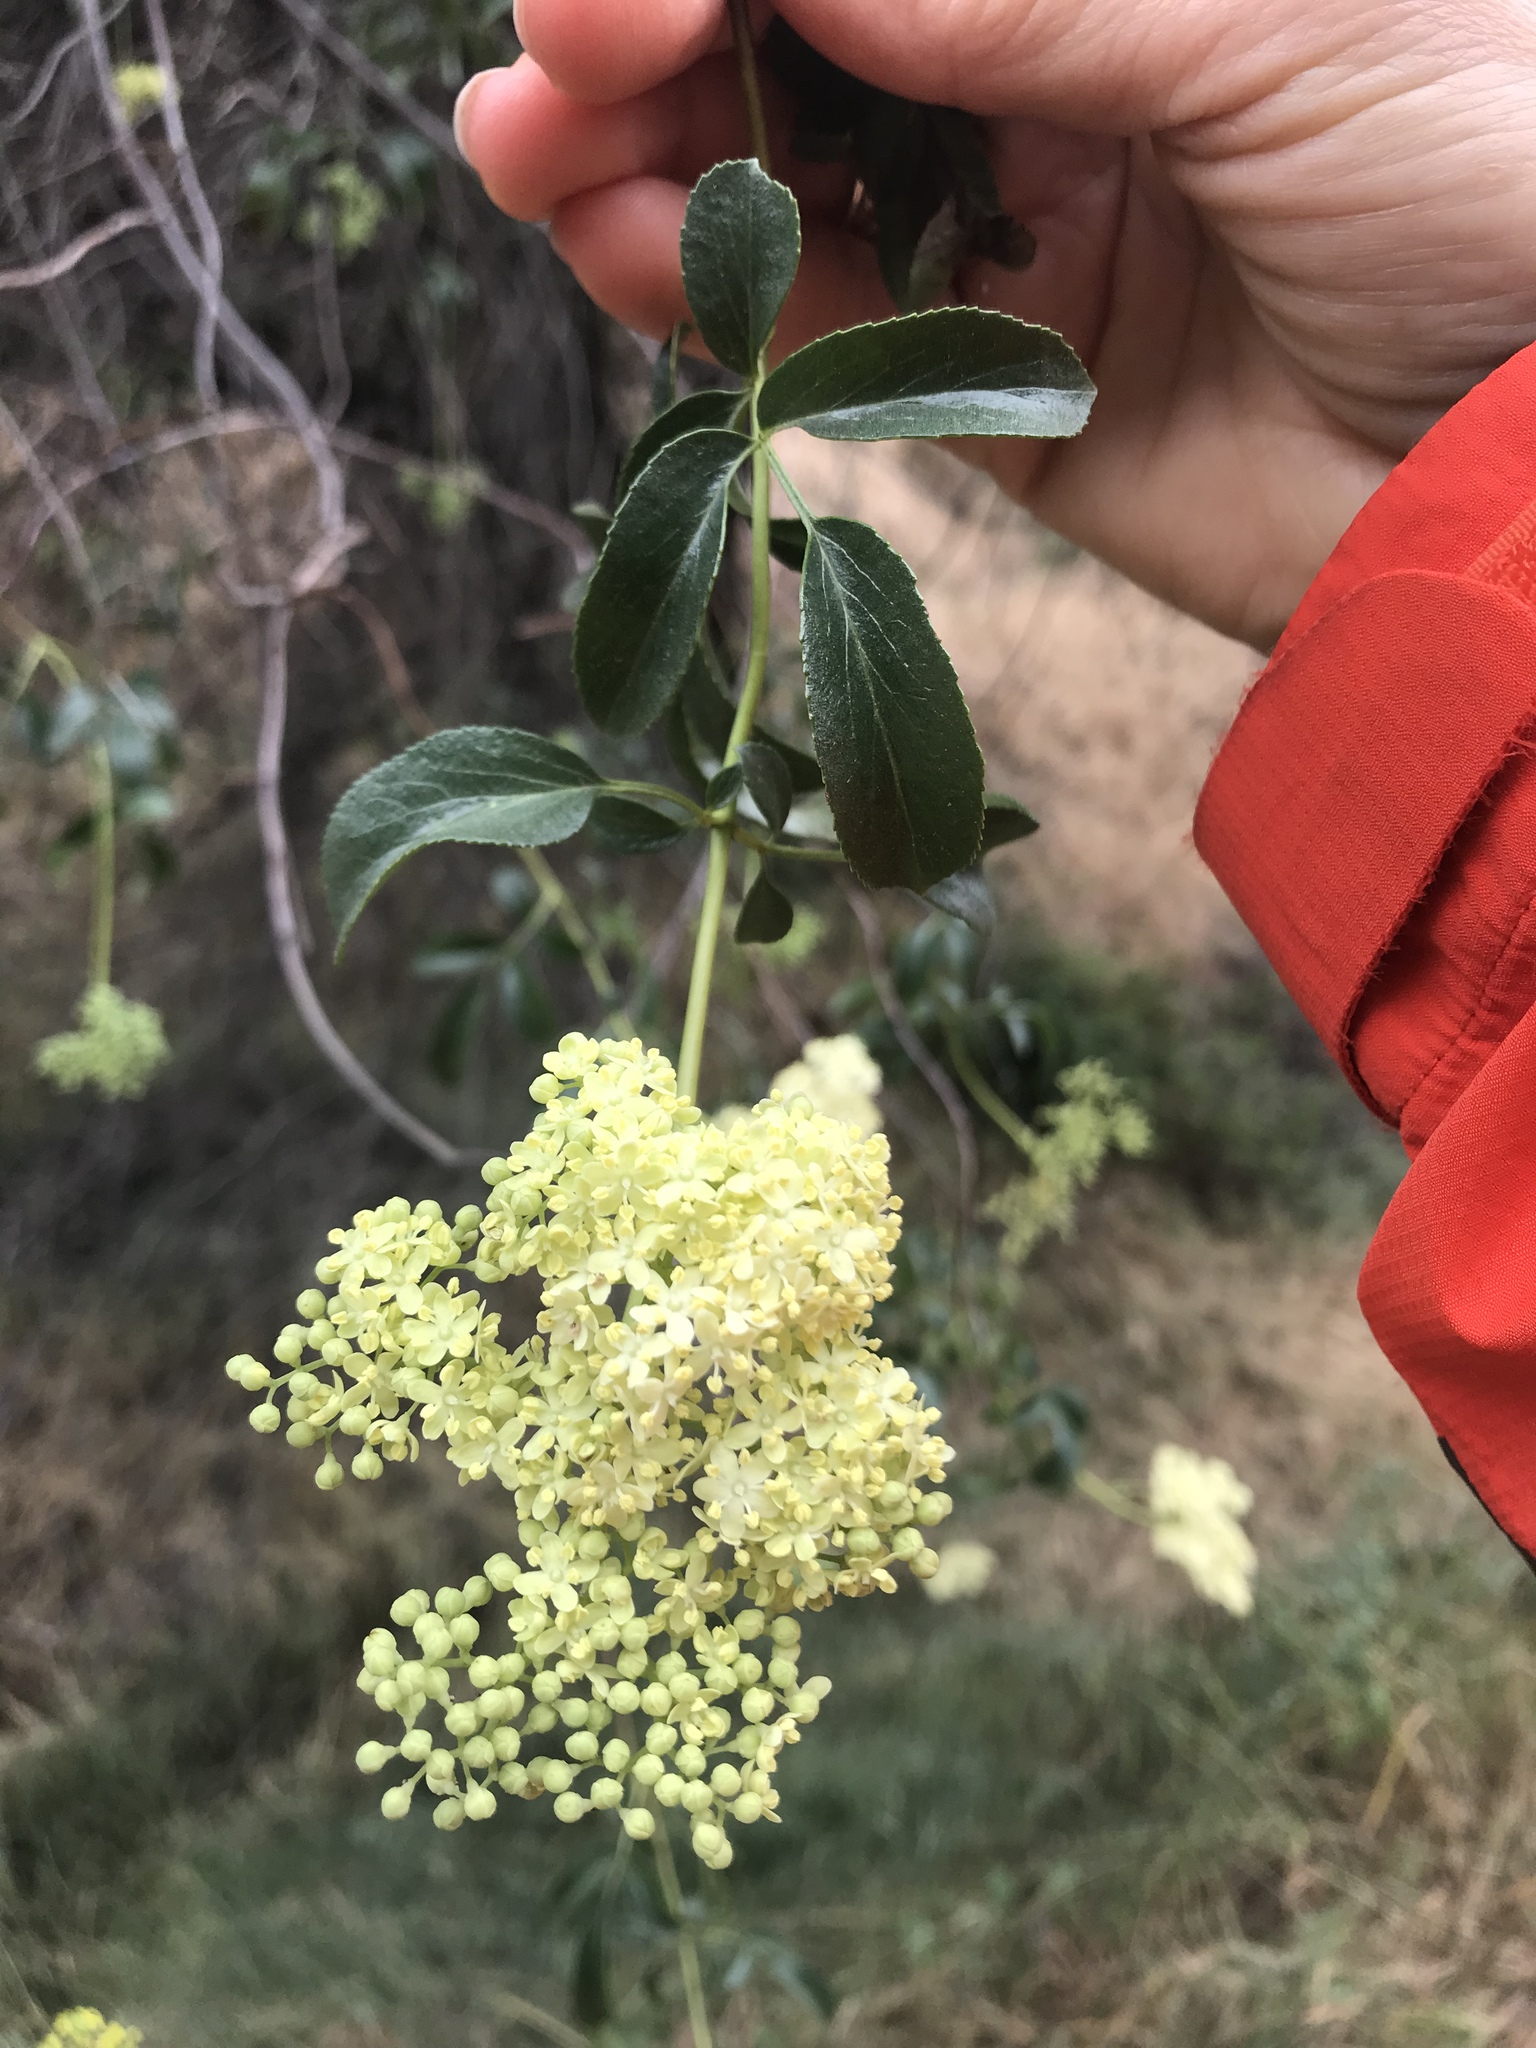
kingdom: Plantae
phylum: Tracheophyta
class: Magnoliopsida
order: Dipsacales
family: Viburnaceae
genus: Sambucus
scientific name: Sambucus cerulea
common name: Blue elder
